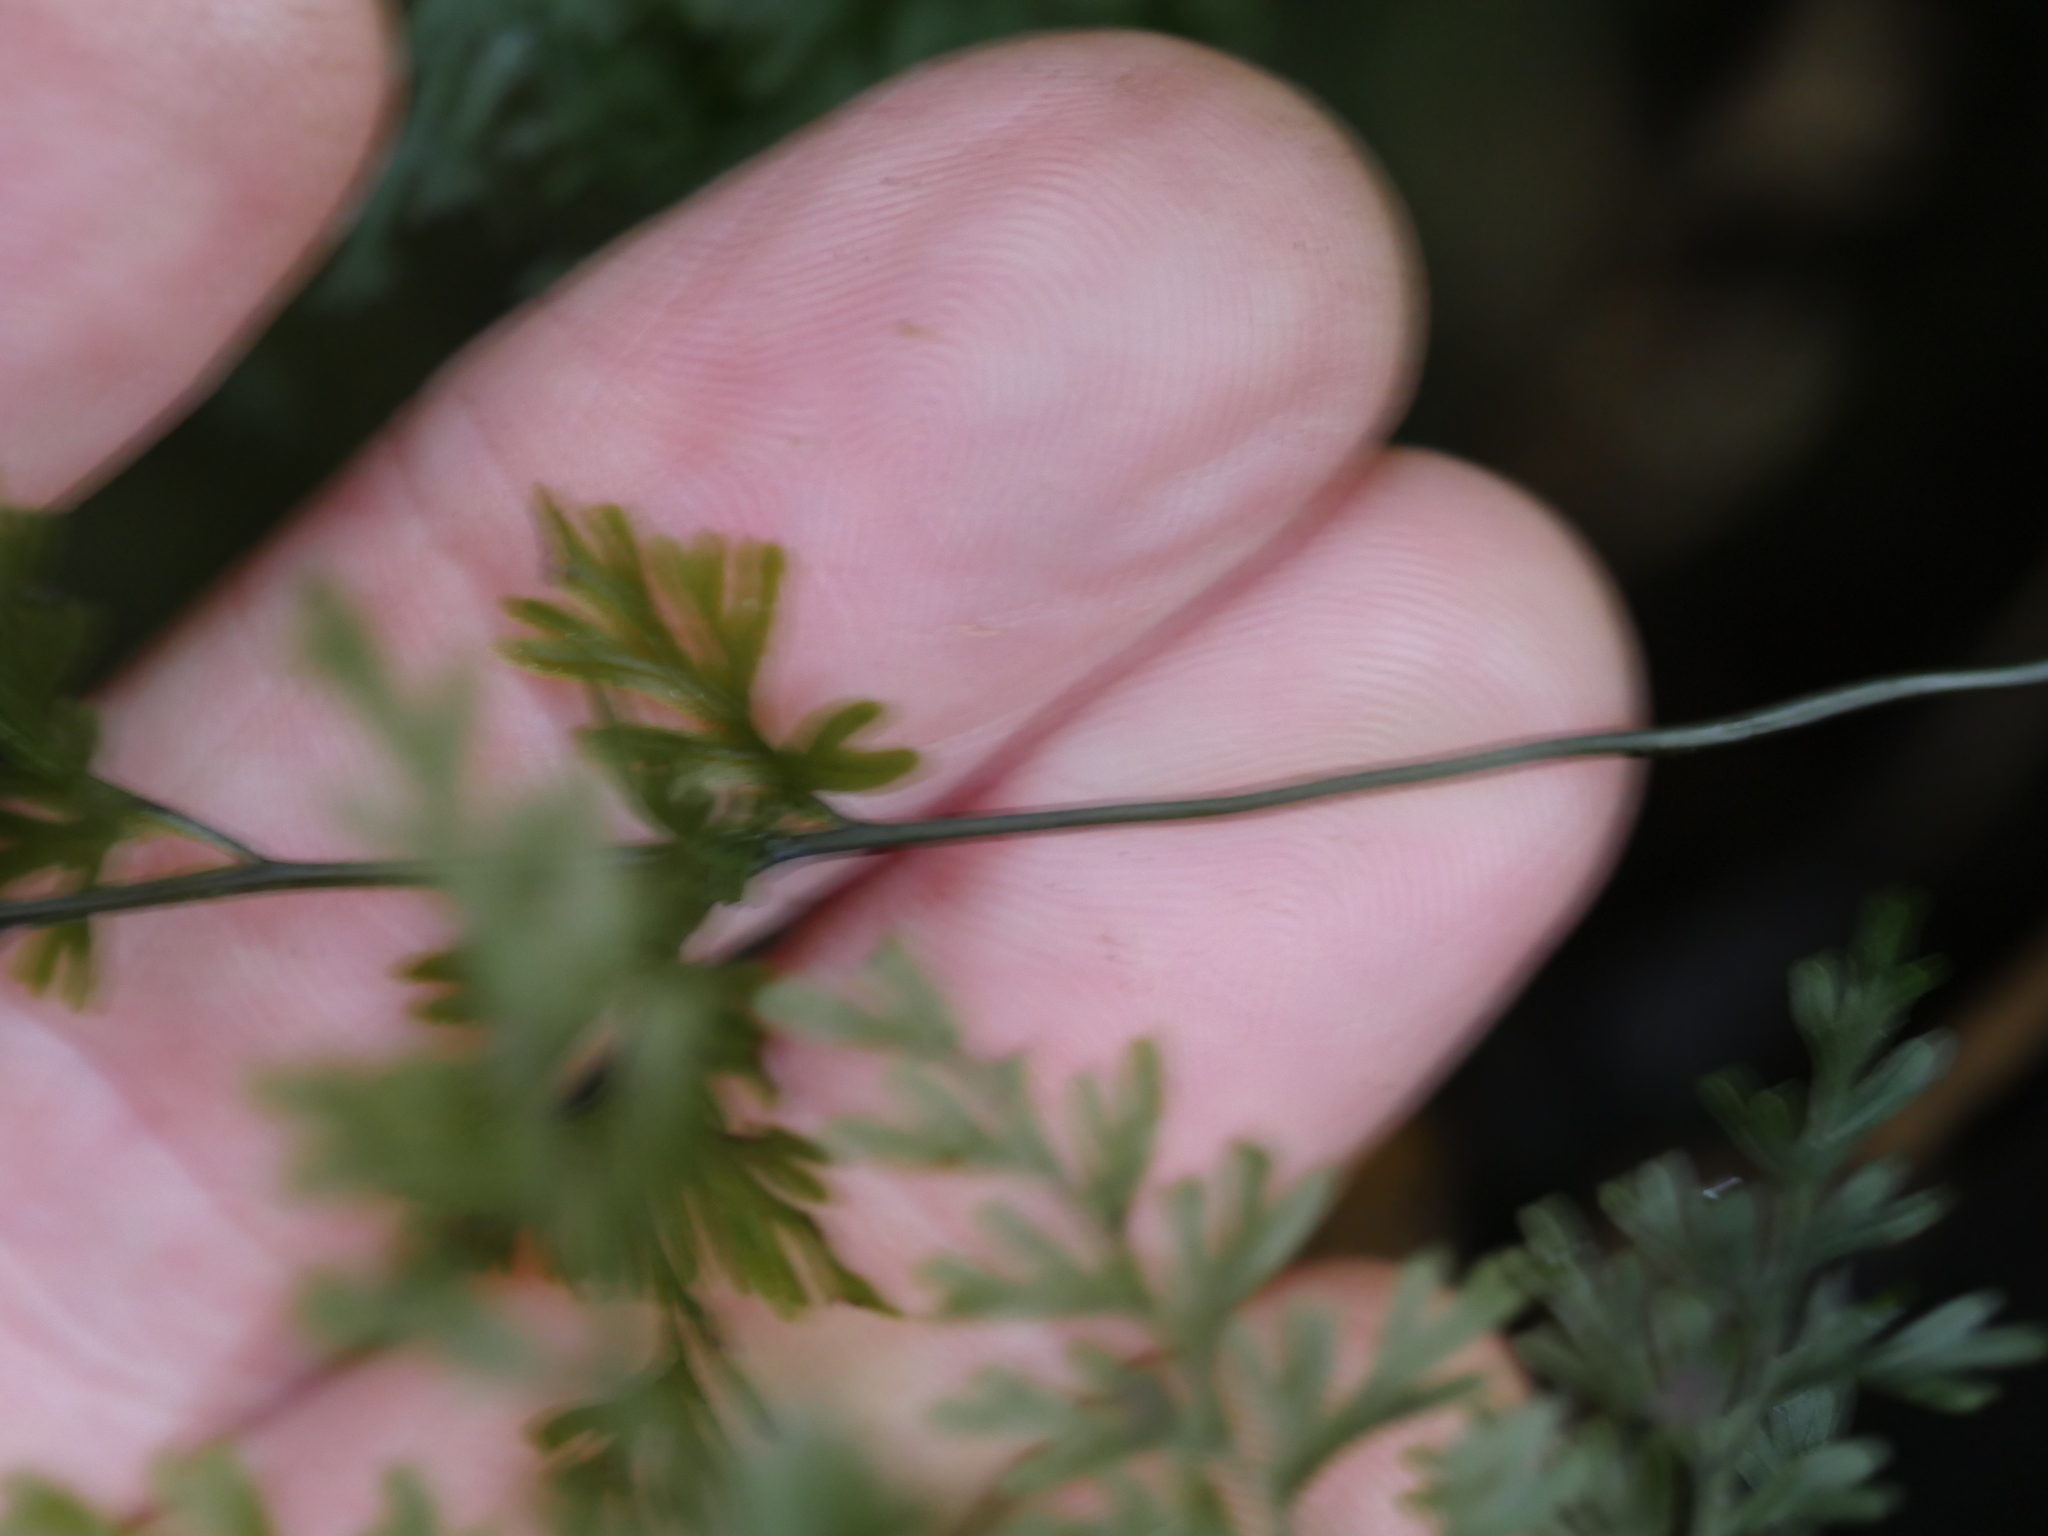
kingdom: Plantae
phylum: Tracheophyta
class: Polypodiopsida
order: Hymenophyllales
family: Hymenophyllaceae
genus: Hymenophyllum
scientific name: Hymenophyllum demissum
